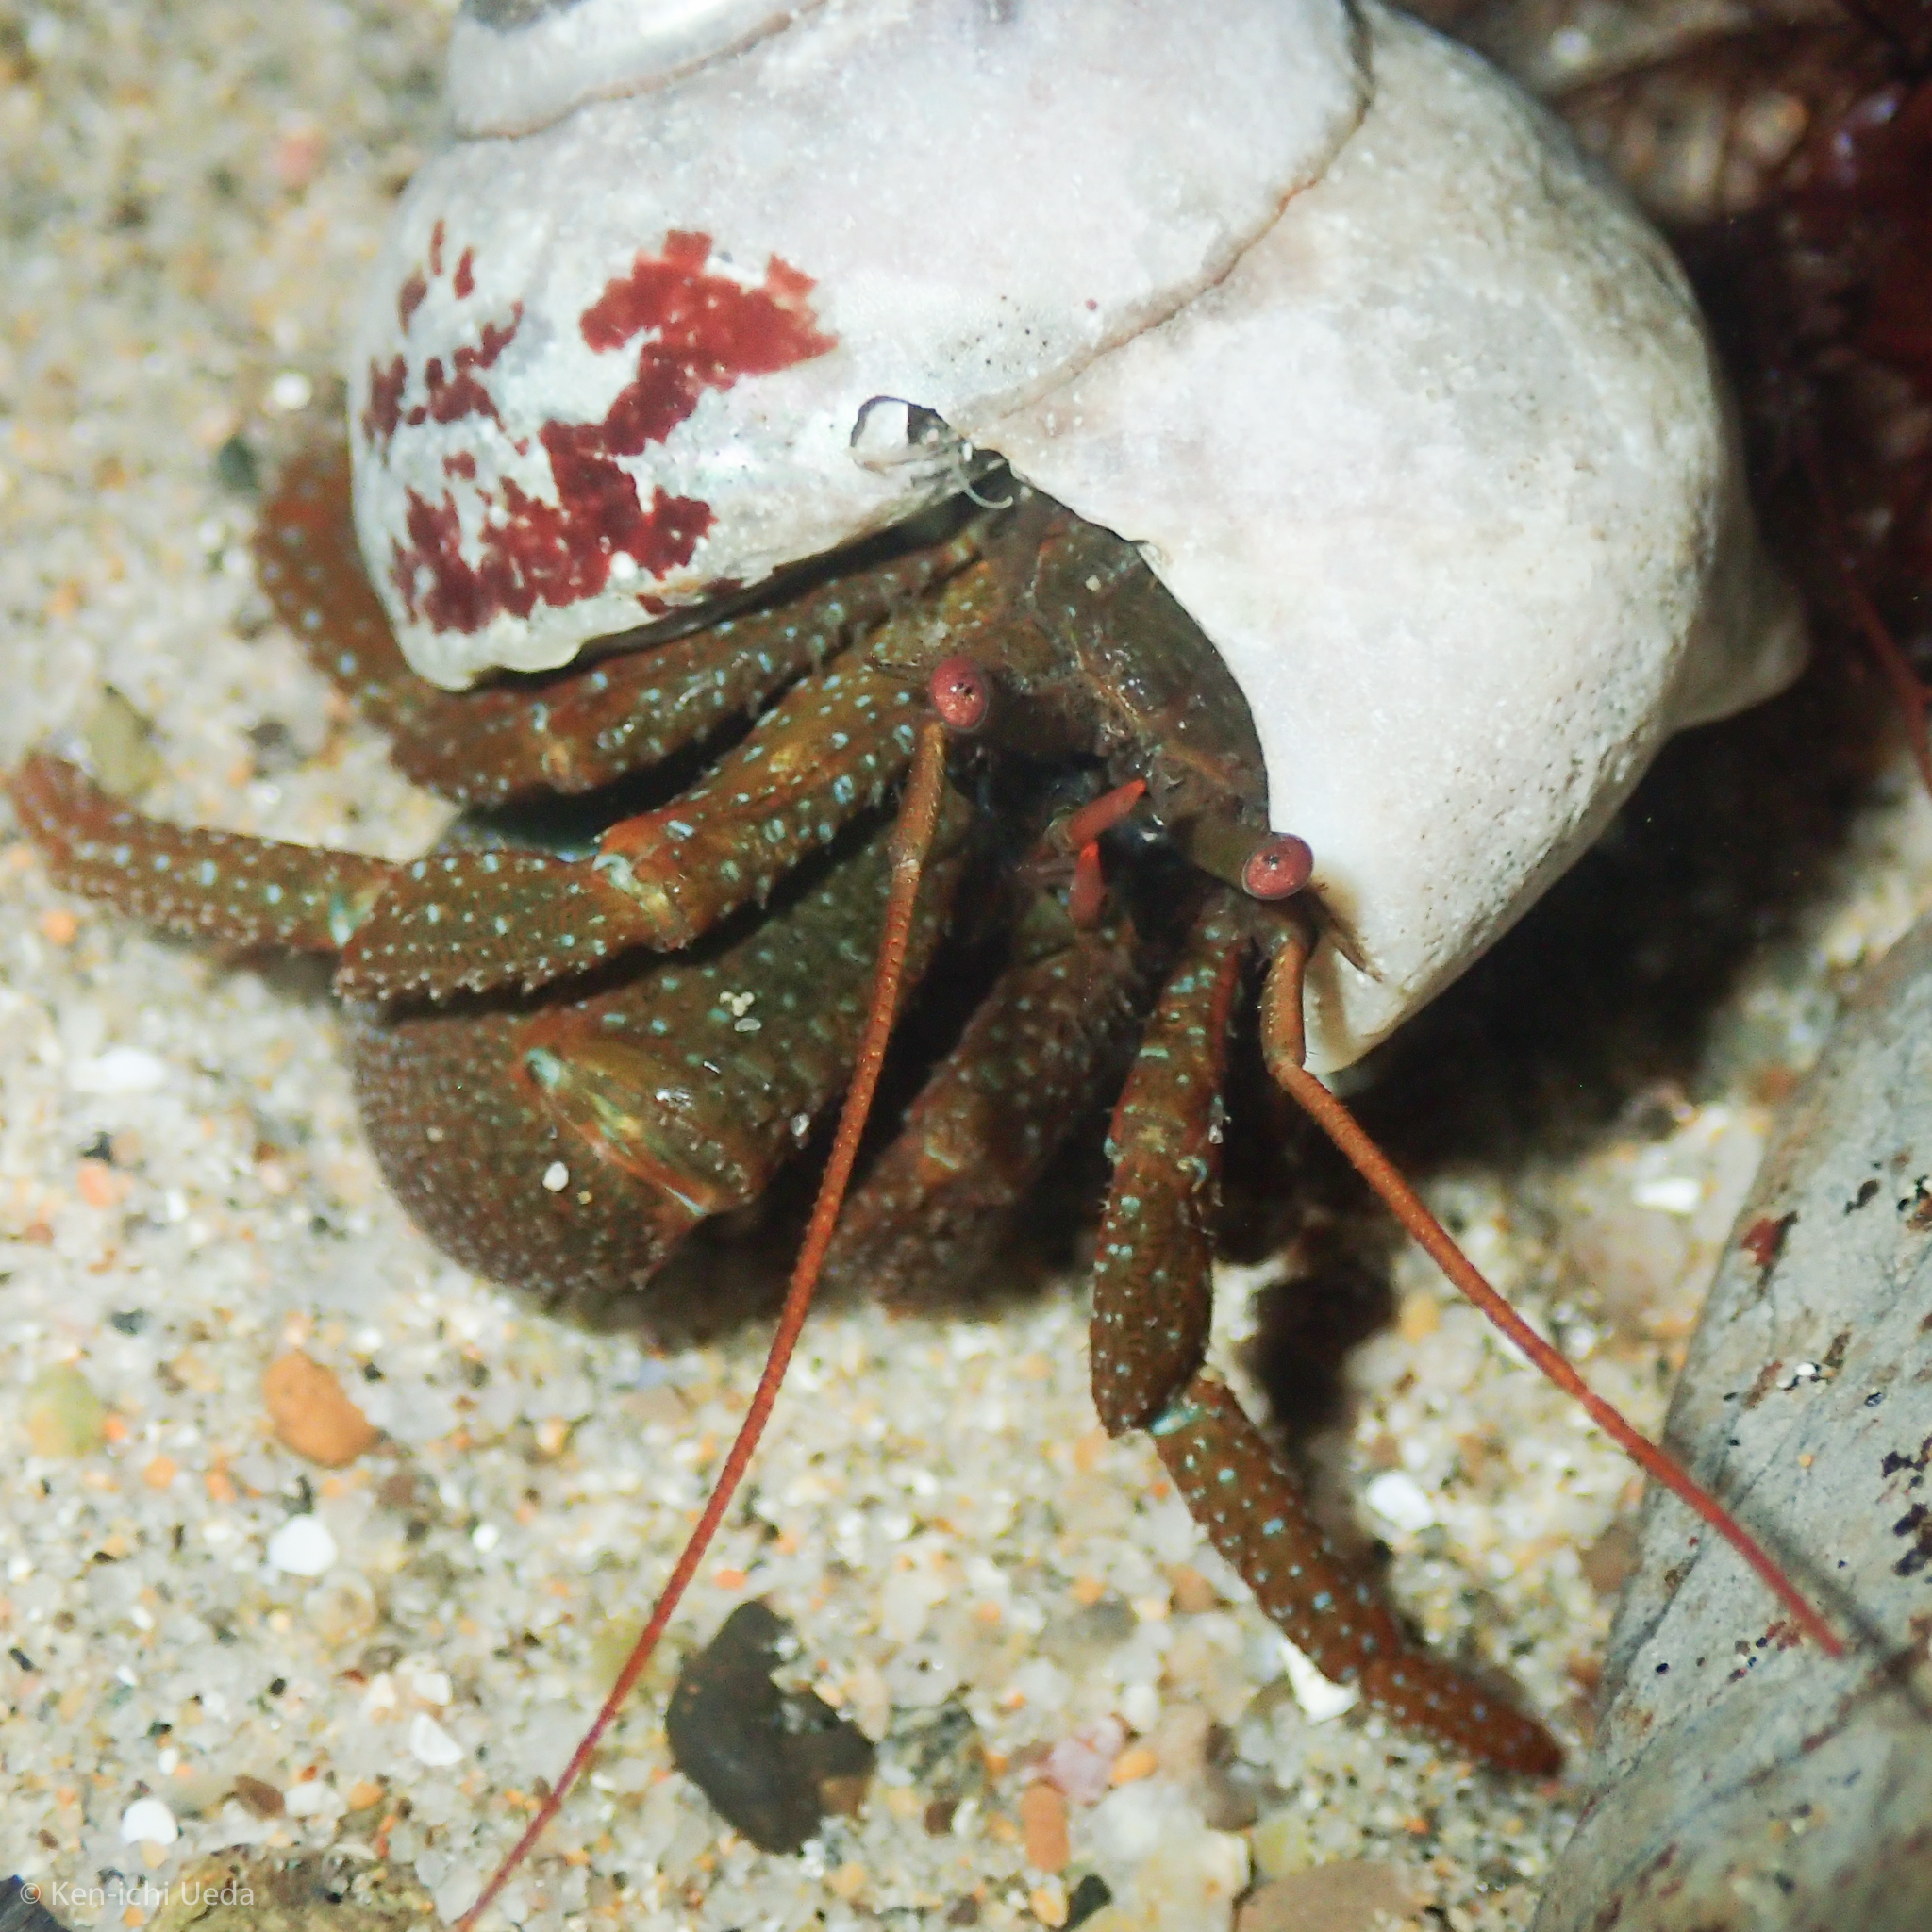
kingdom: Animalia
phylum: Arthropoda
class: Malacostraca
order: Decapoda
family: Paguridae
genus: Pagurus
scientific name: Pagurus granosimanus
